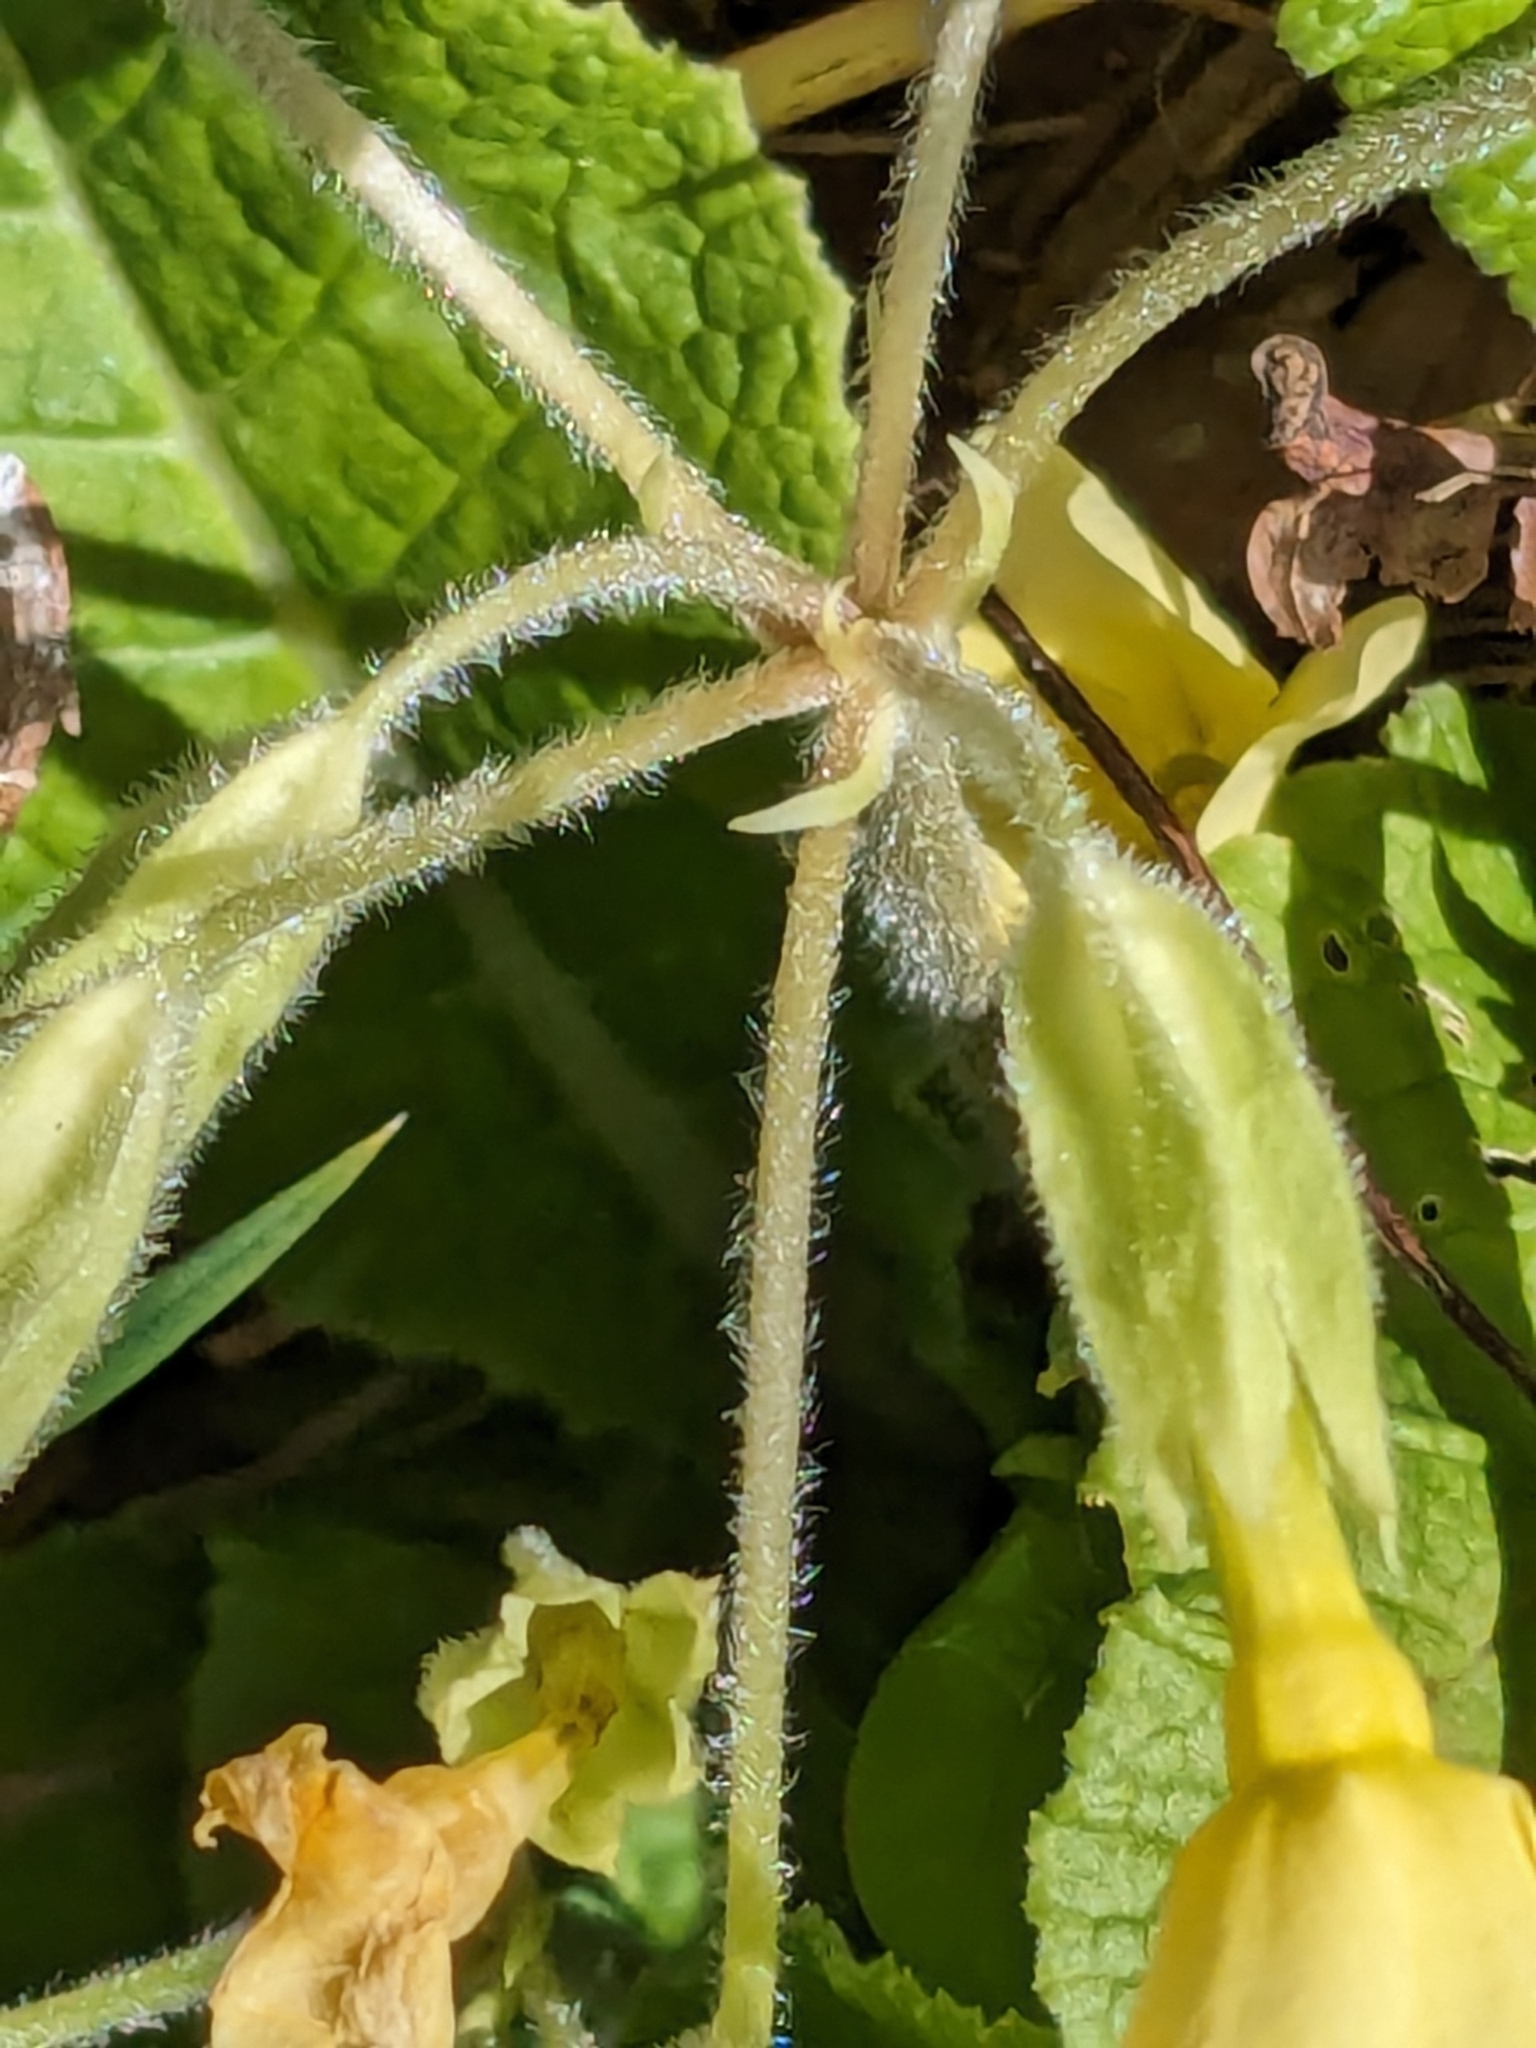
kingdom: Plantae
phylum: Tracheophyta
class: Magnoliopsida
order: Ericales
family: Primulaceae
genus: Primula
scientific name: Primula elatior
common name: Oxlip
